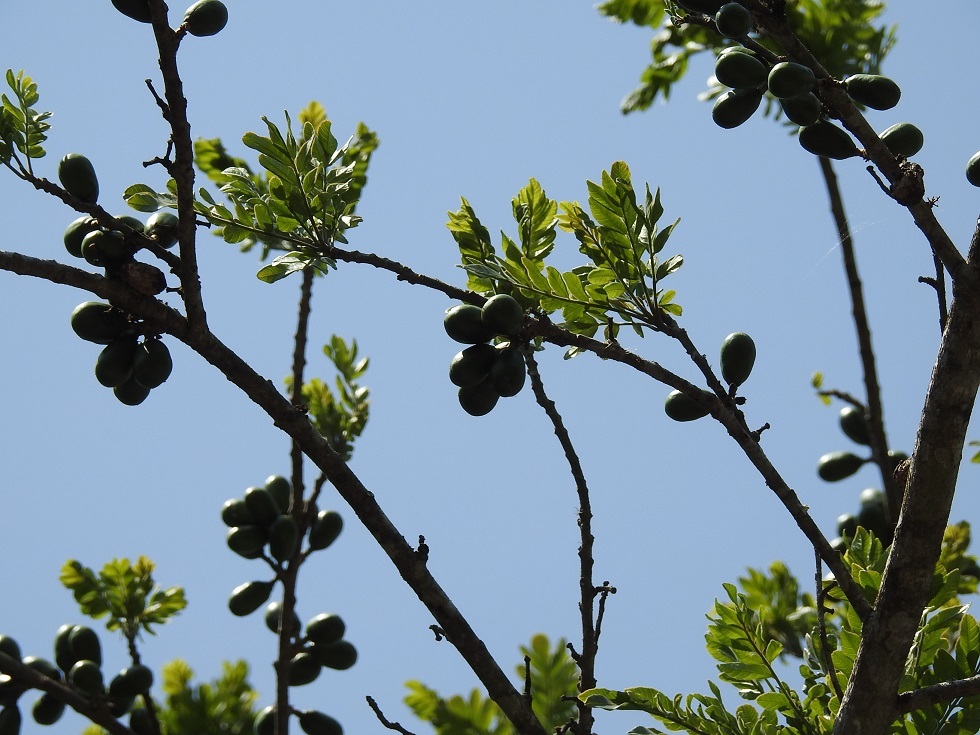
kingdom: Plantae
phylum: Tracheophyta
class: Magnoliopsida
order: Sapindales
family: Anacardiaceae
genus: Spondias
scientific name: Spondias purpurea
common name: Purple mombin
